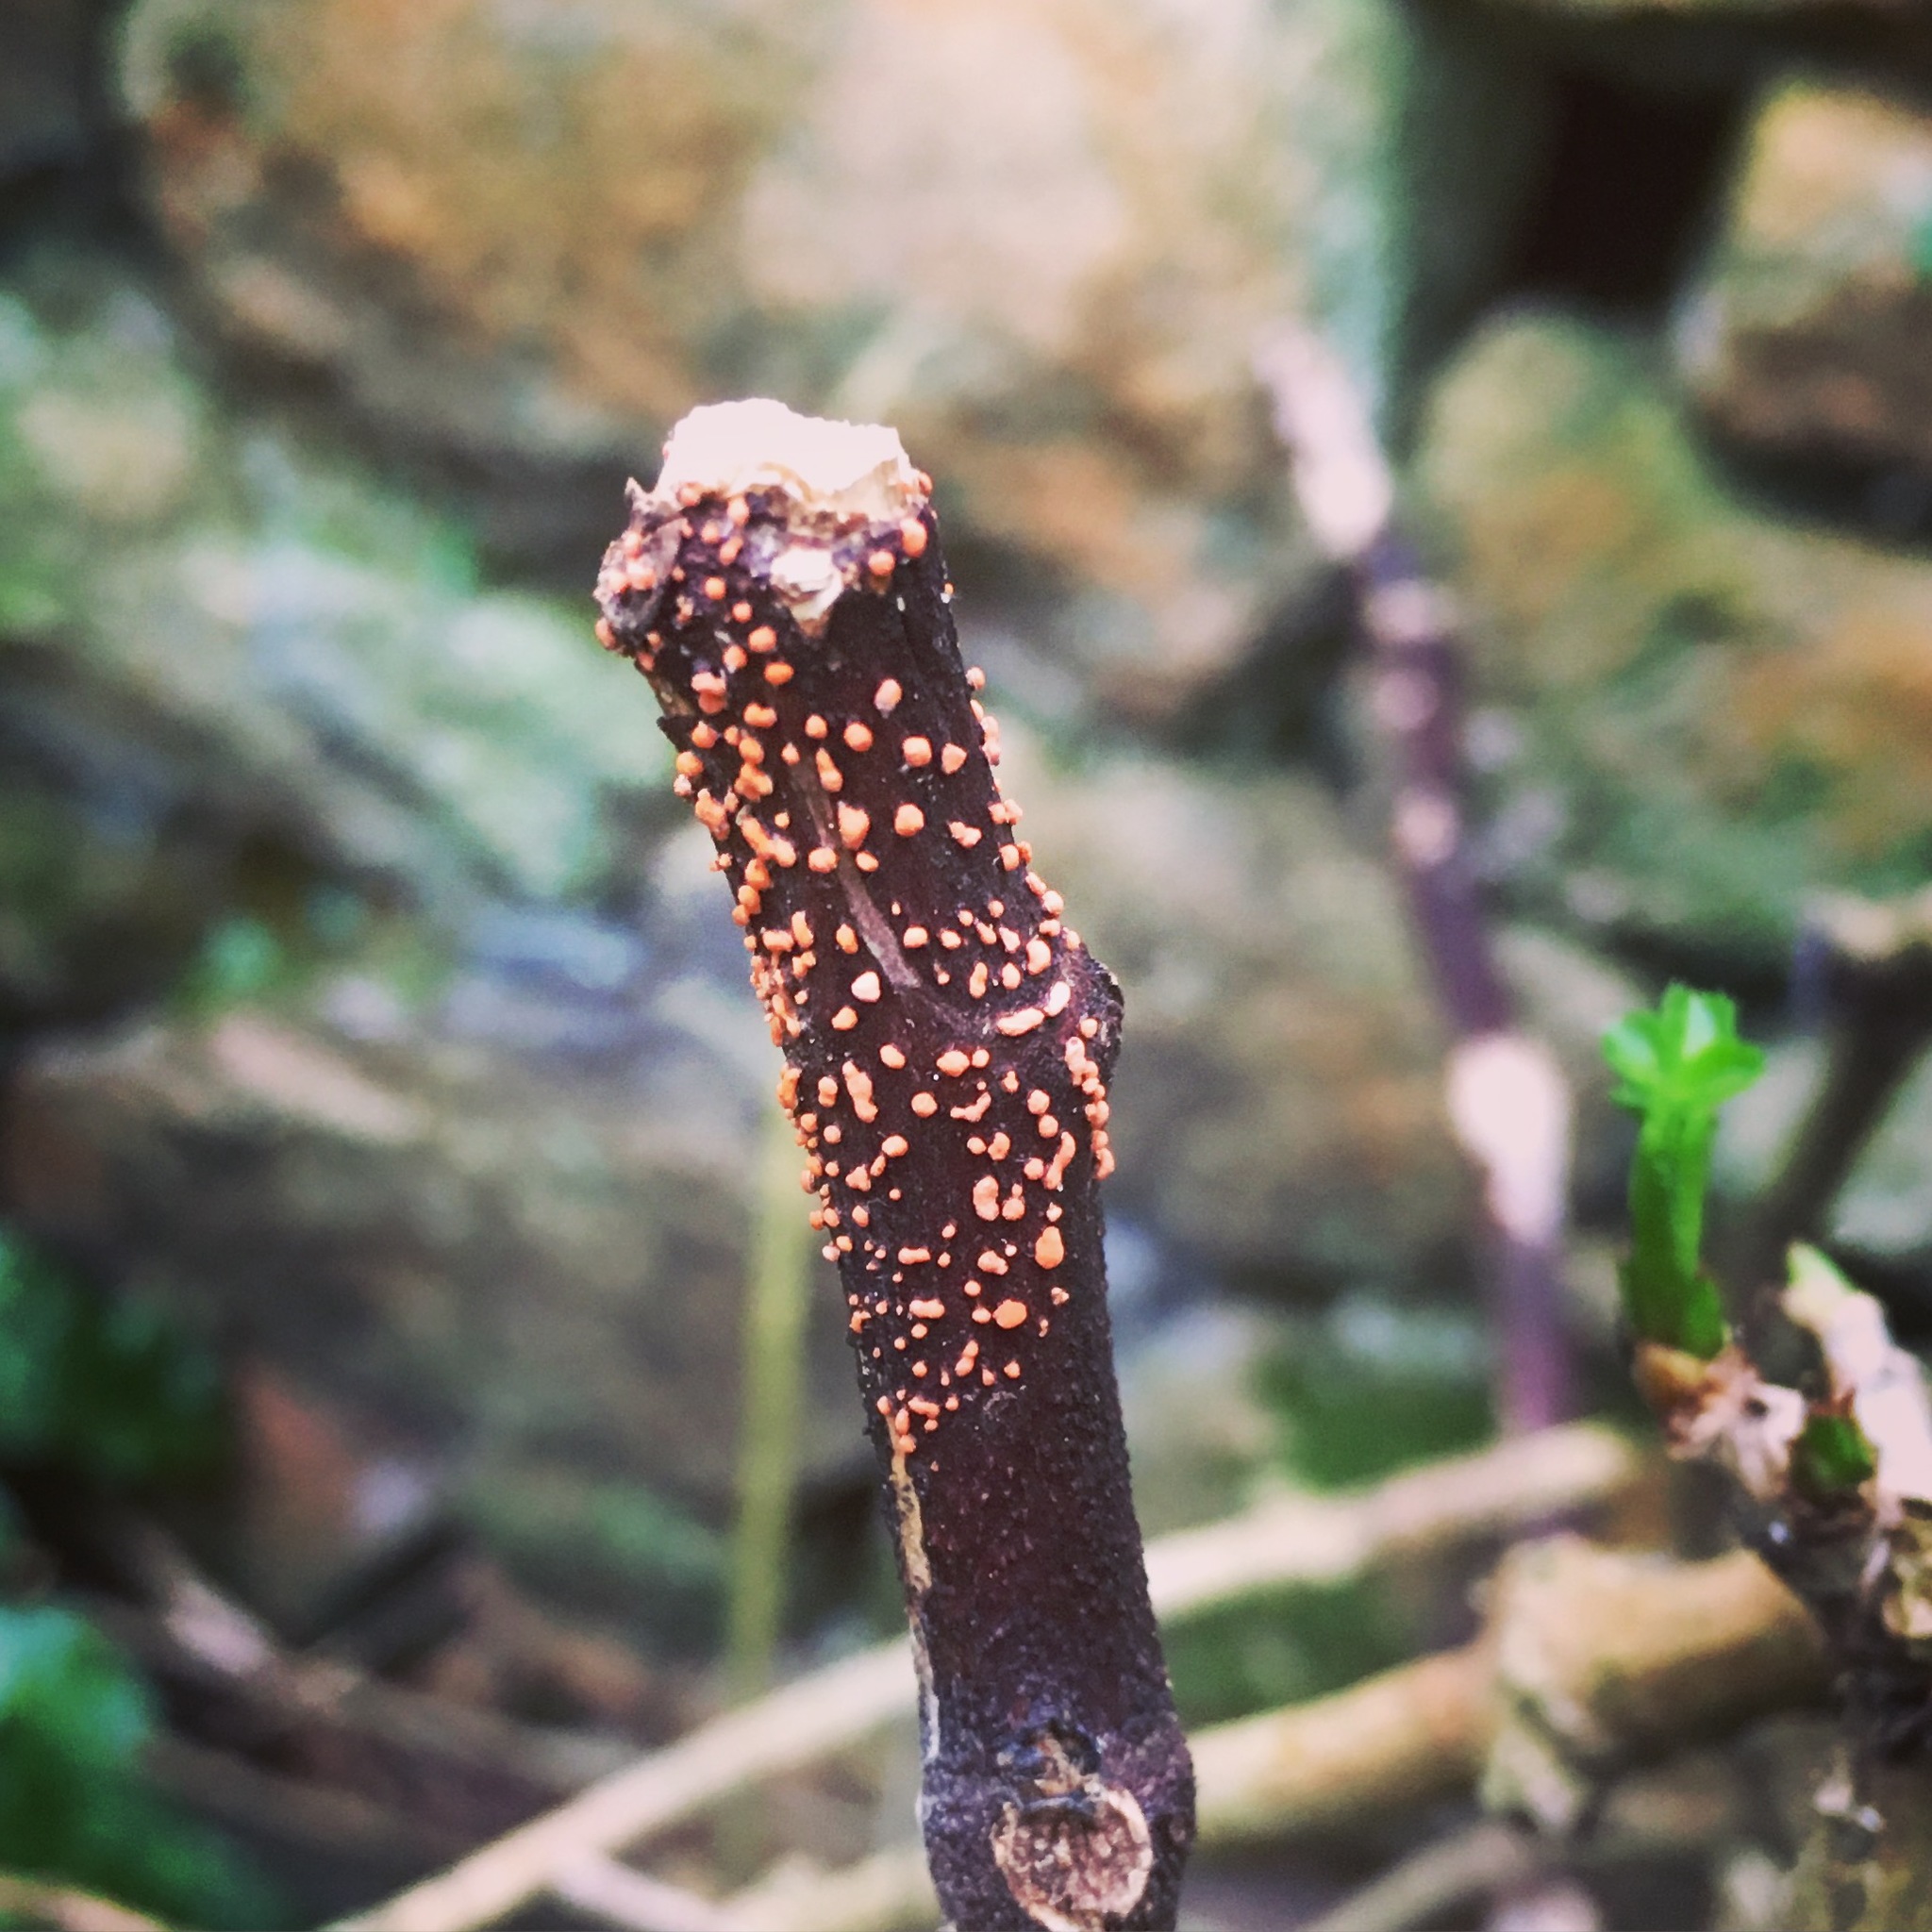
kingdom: Fungi
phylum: Ascomycota
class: Sordariomycetes
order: Hypocreales
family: Nectriaceae
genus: Nectria
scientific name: Nectria cinnabarina
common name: Coral spot
